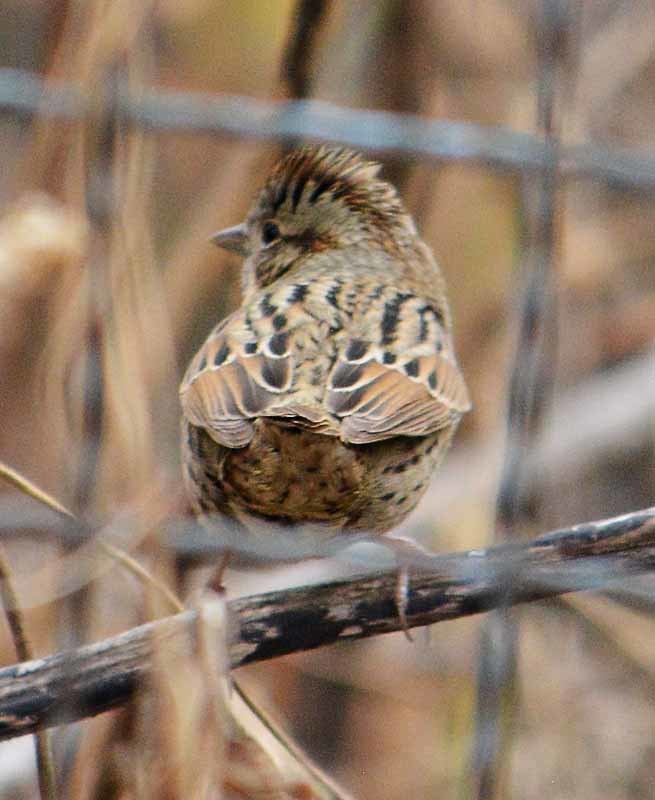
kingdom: Animalia
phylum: Chordata
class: Aves
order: Passeriformes
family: Passerellidae
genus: Melospiza
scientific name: Melospiza lincolnii
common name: Lincoln's sparrow
